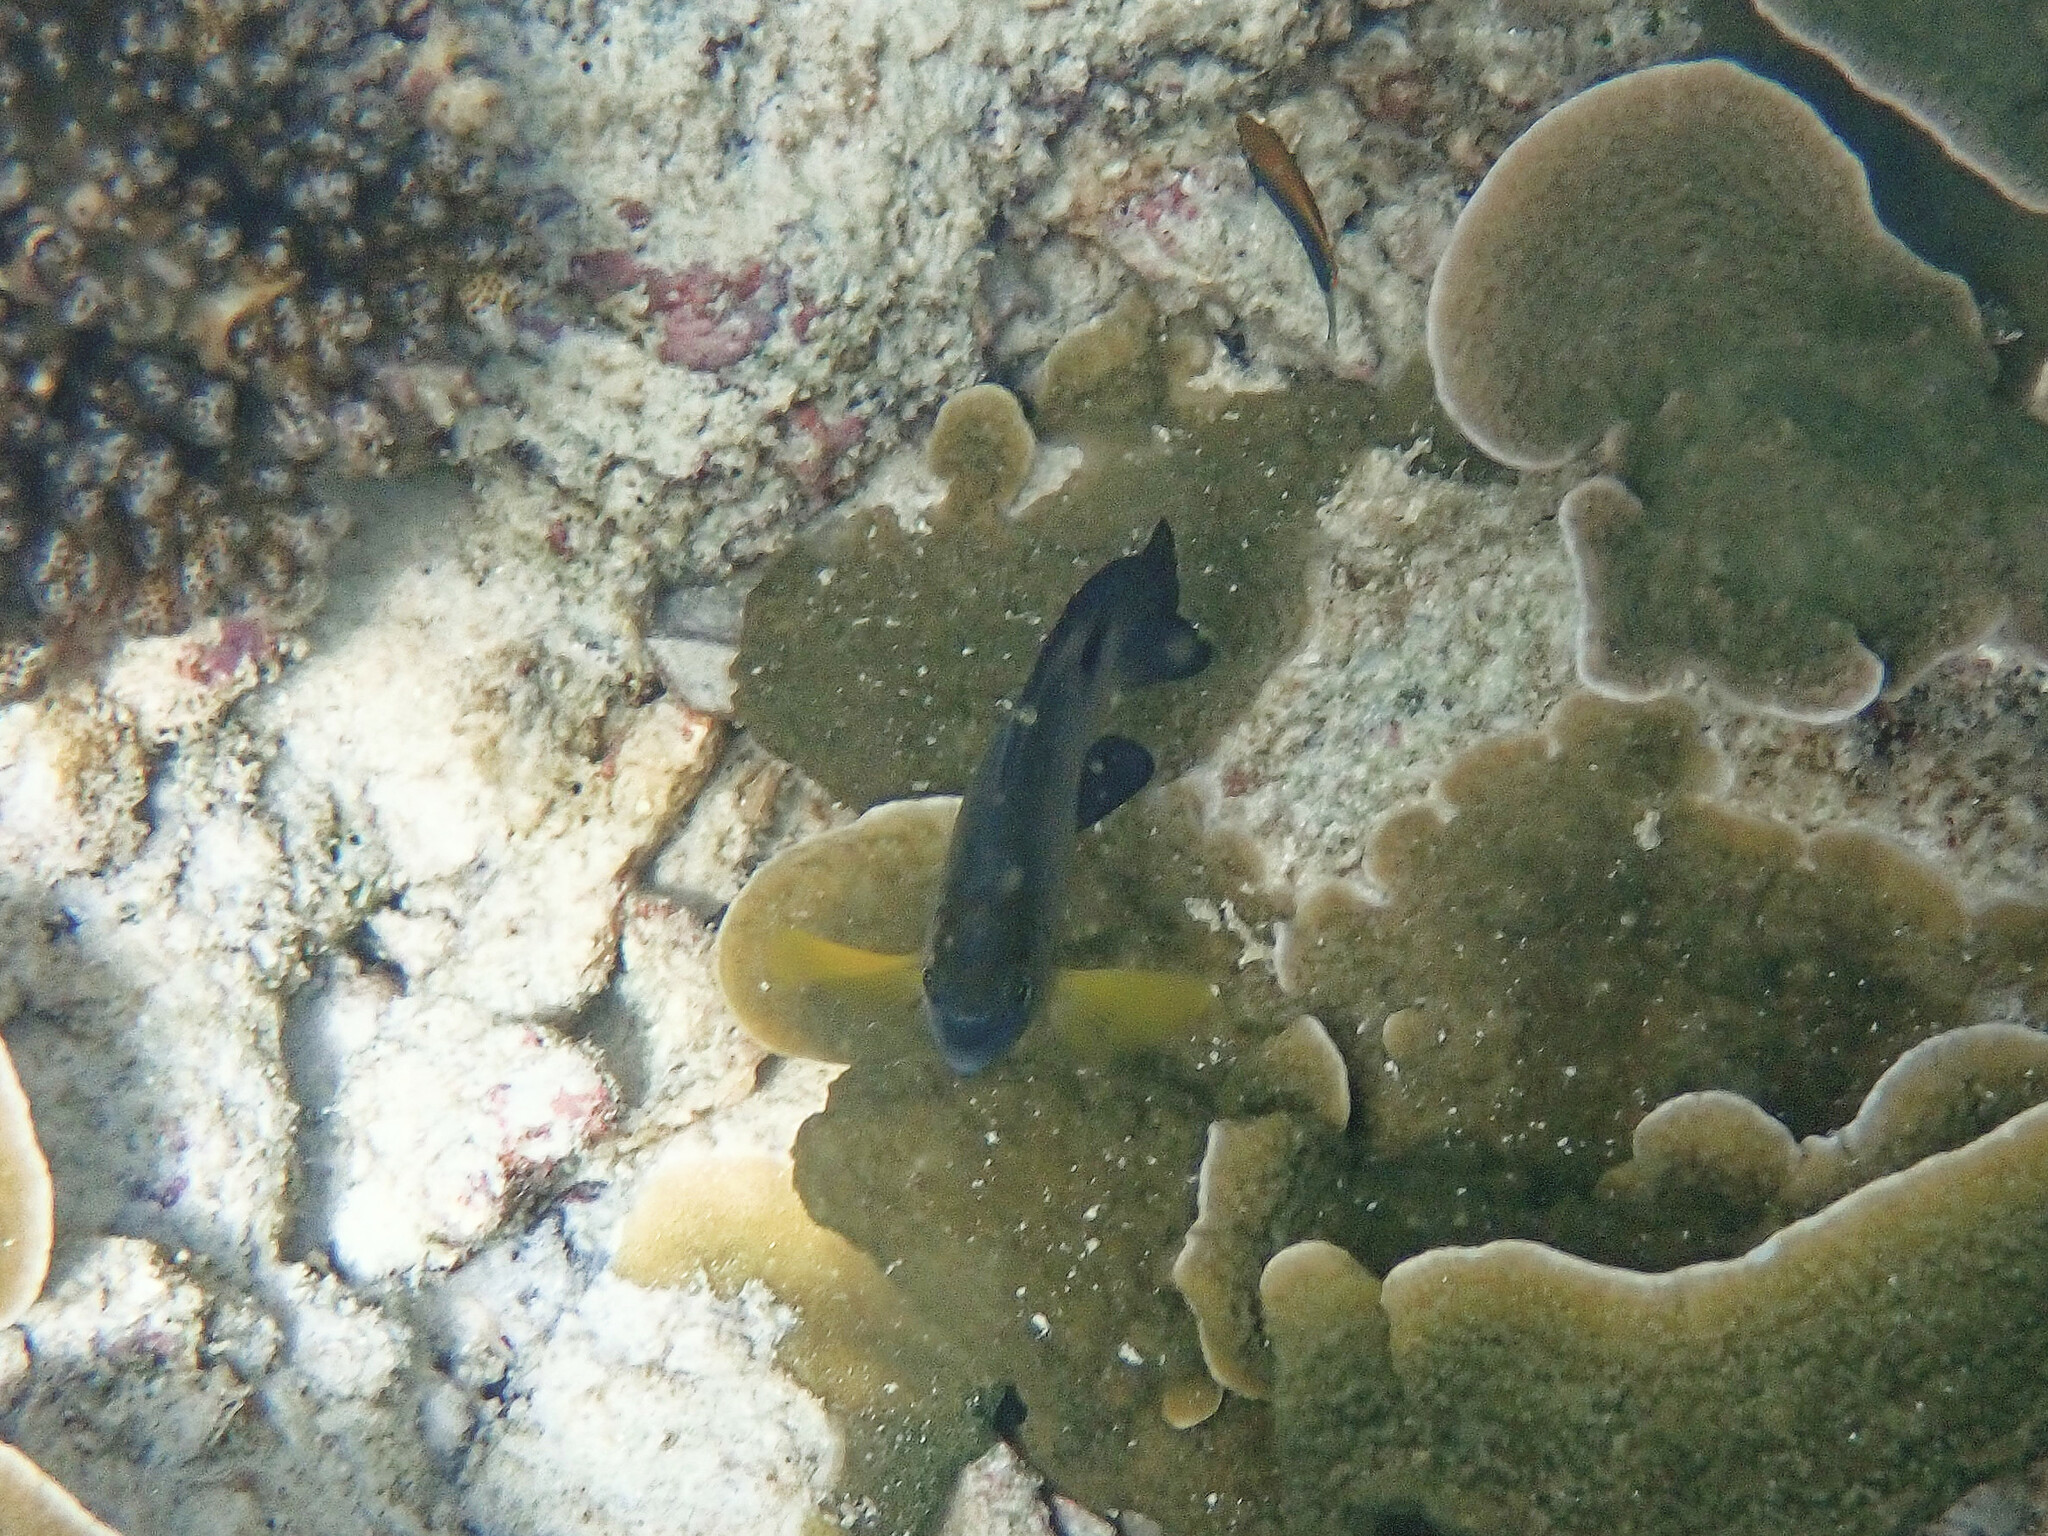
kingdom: Animalia
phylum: Chordata
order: Perciformes
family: Pomacentridae
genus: Chrysiptera
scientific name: Chrysiptera unimaculata
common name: Onespot demoiselle
